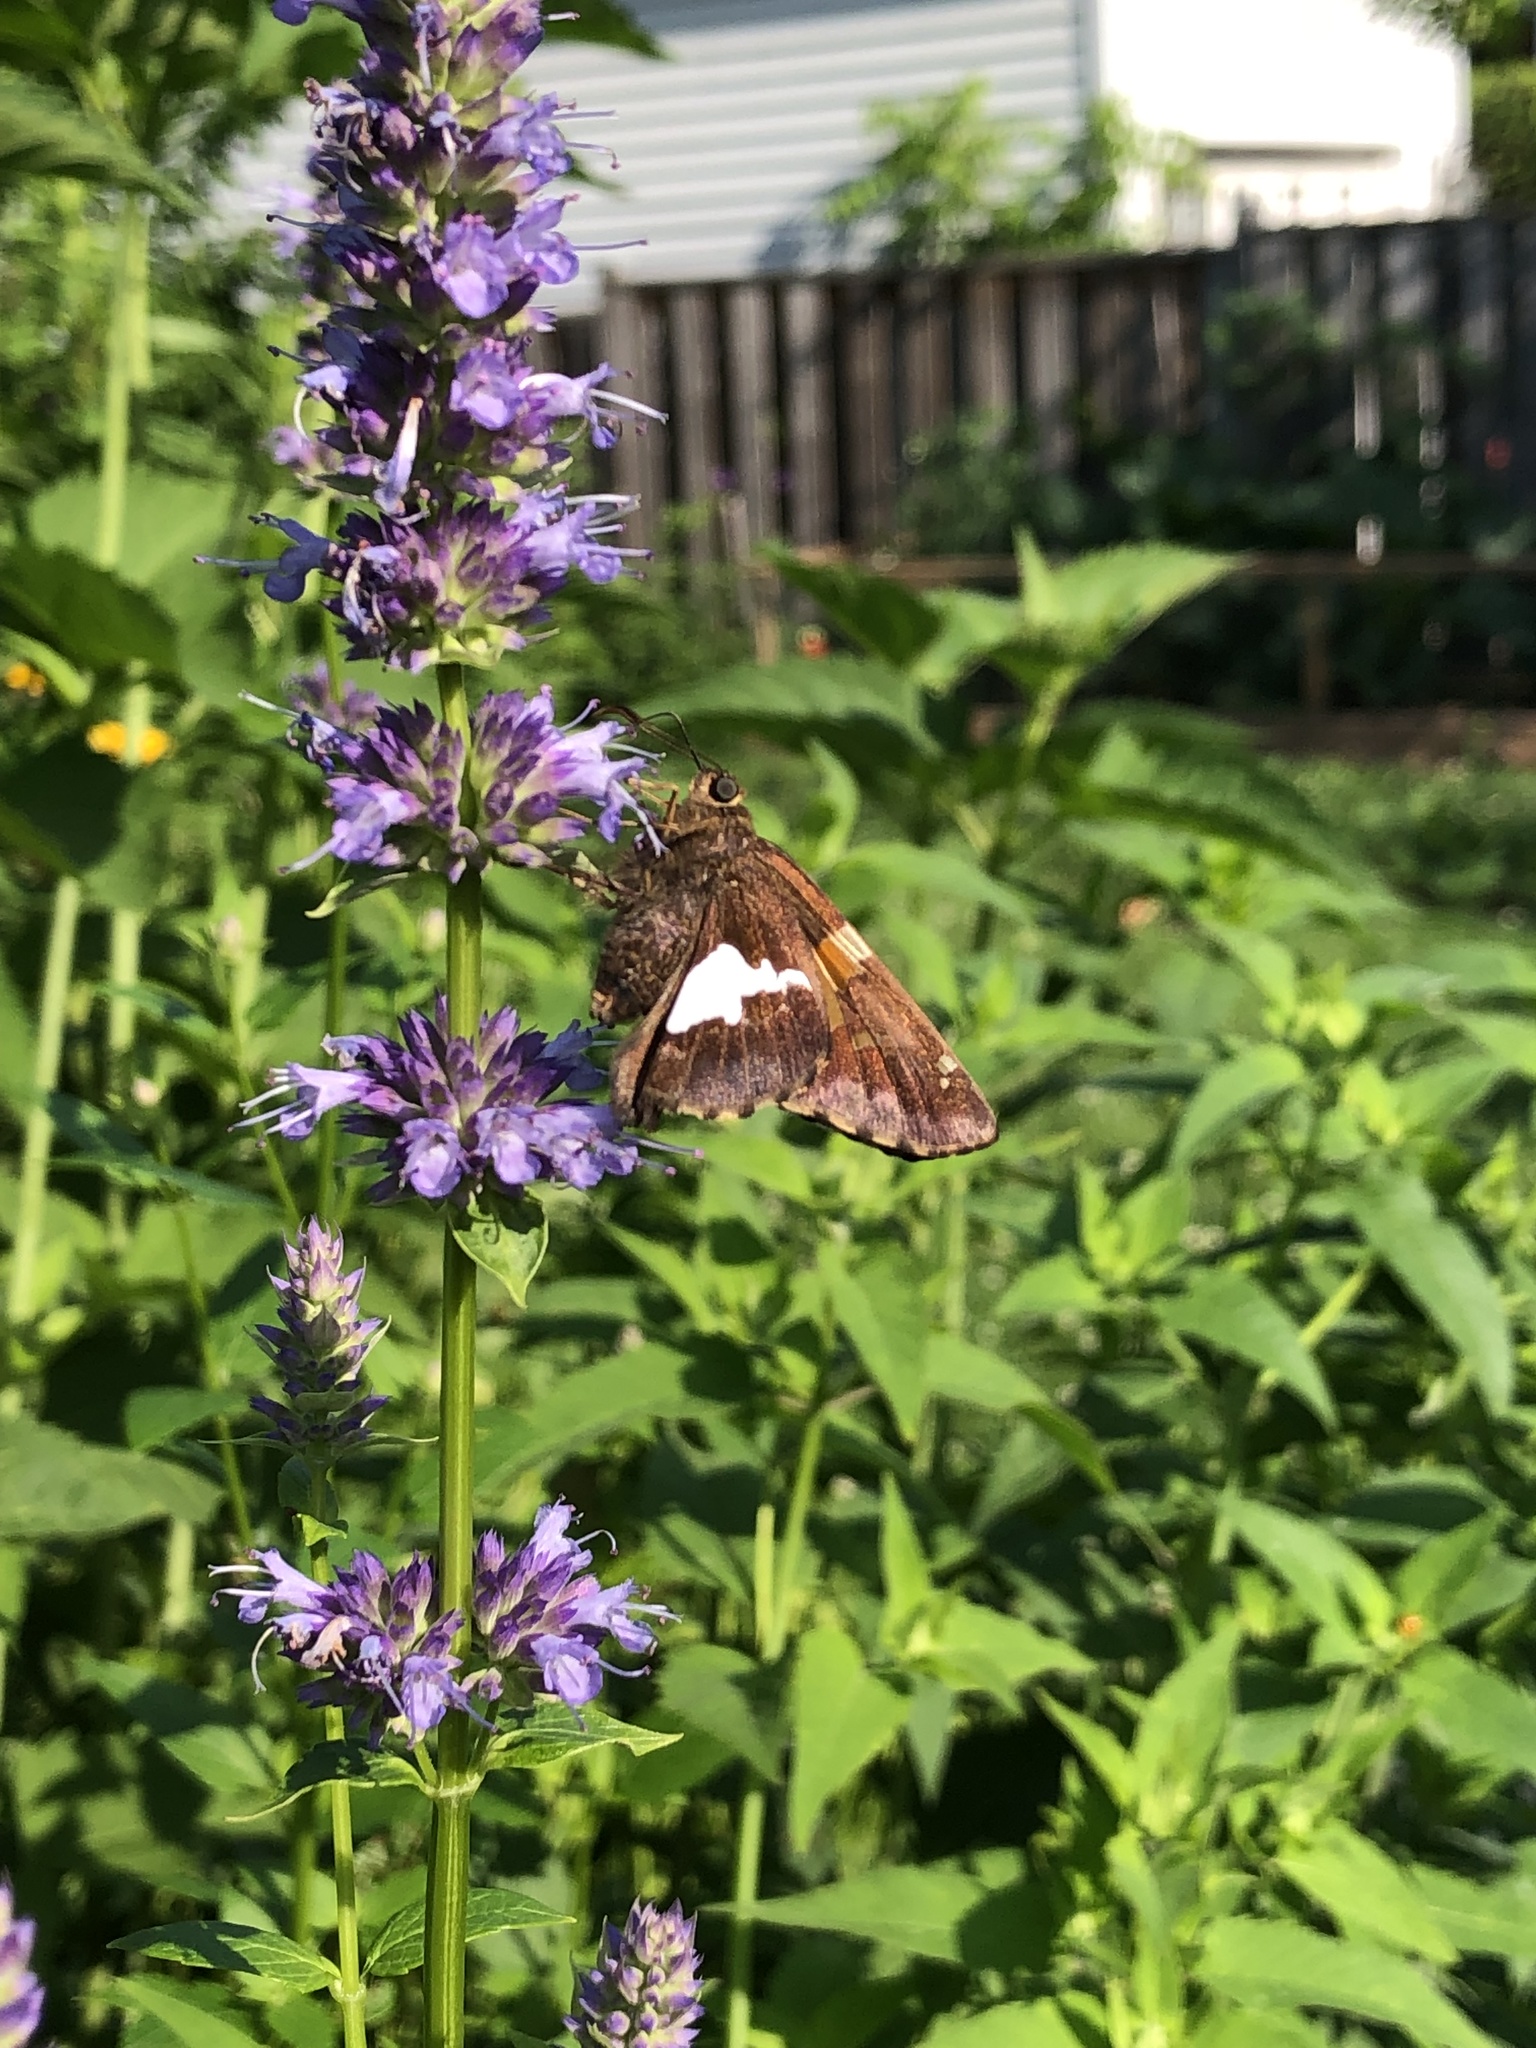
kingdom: Animalia
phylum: Arthropoda
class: Insecta
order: Lepidoptera
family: Hesperiidae
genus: Epargyreus
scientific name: Epargyreus clarus
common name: Silver-spotted skipper
